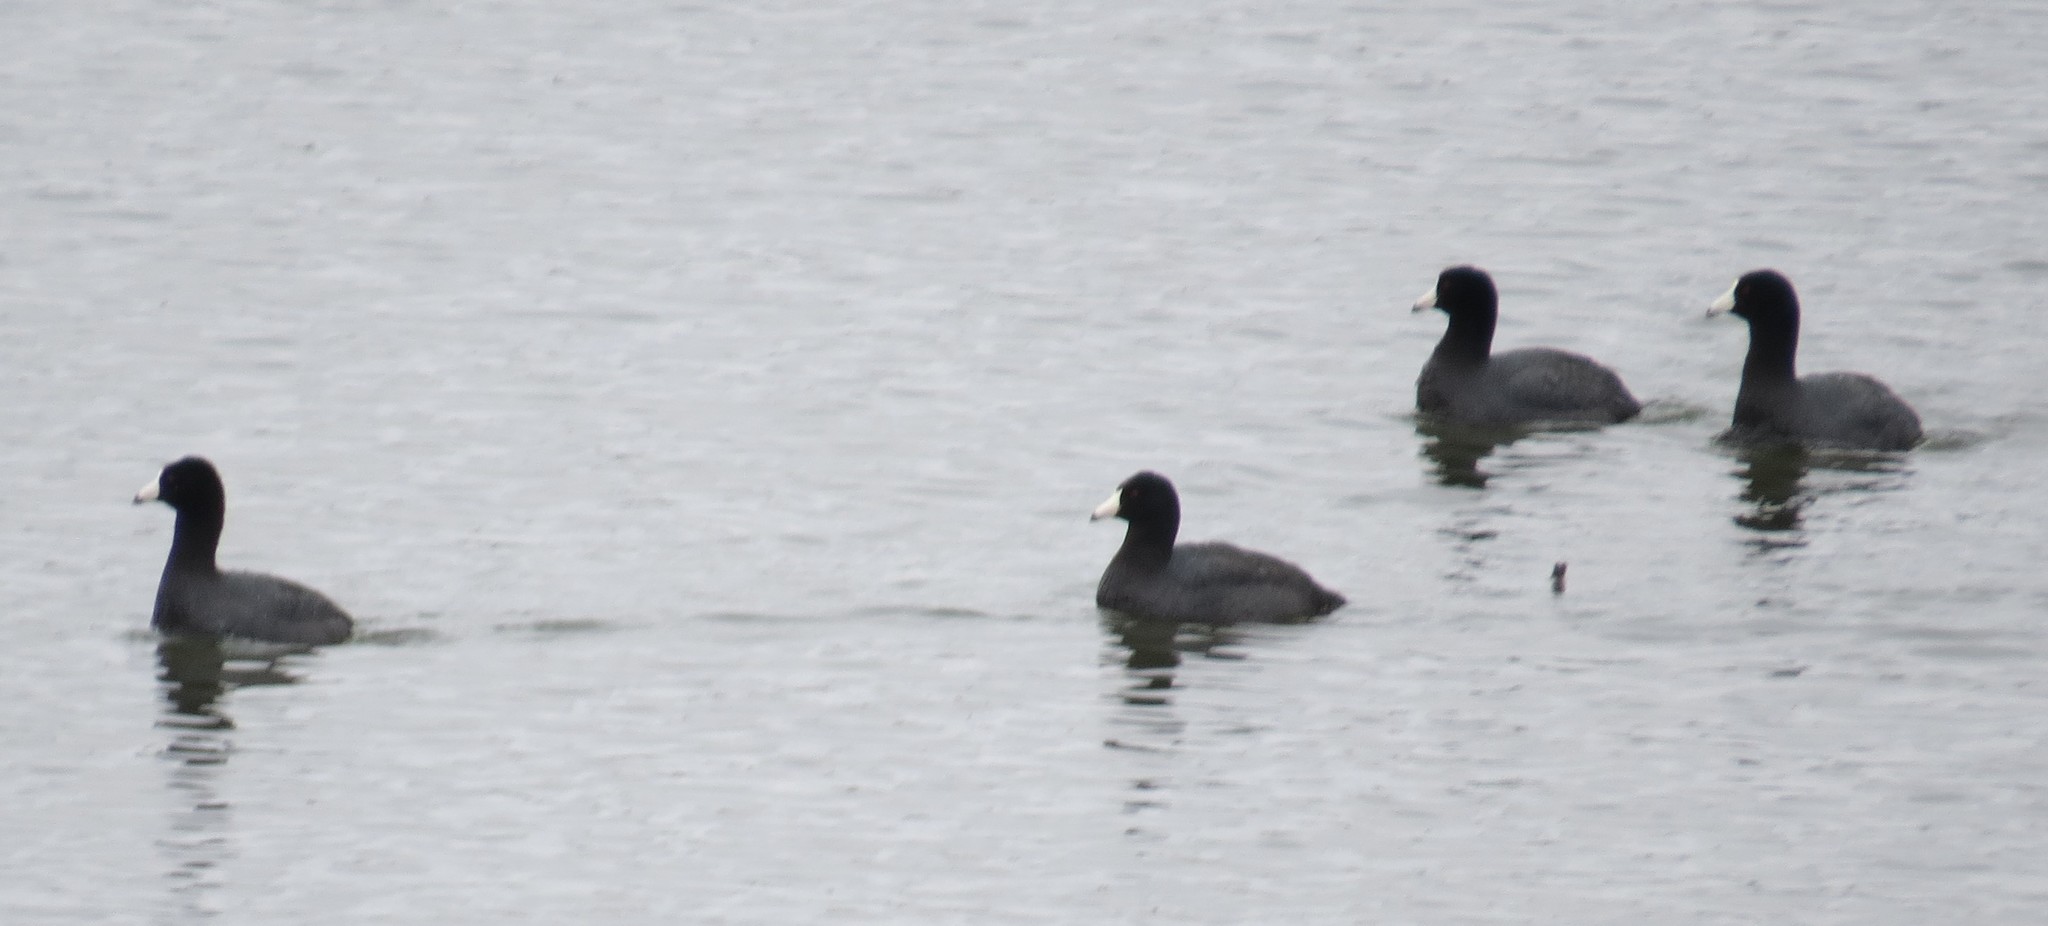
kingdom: Animalia
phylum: Chordata
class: Aves
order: Gruiformes
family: Rallidae
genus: Fulica
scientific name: Fulica americana
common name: American coot
